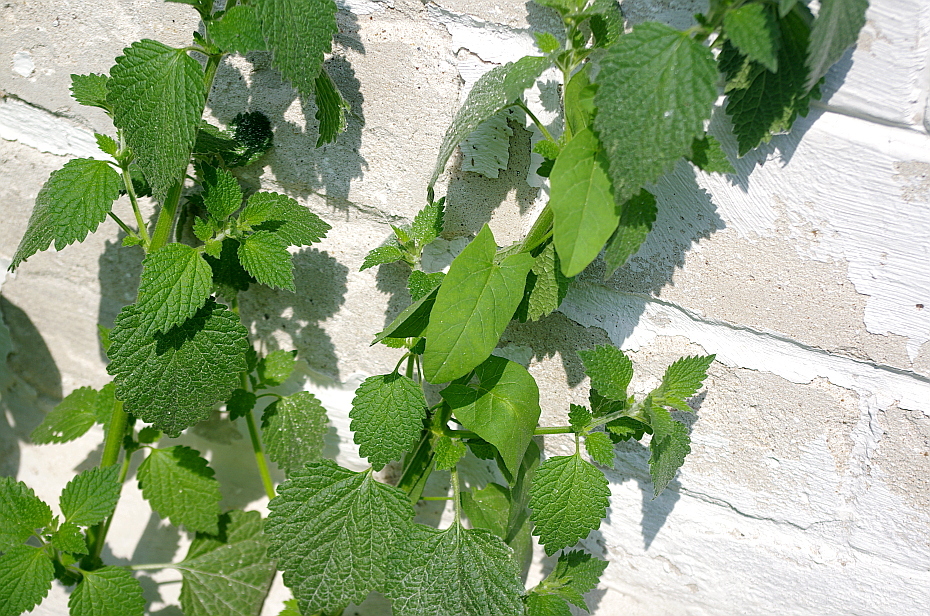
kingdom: Plantae
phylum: Tracheophyta
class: Magnoliopsida
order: Solanales
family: Convolvulaceae
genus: Convolvulus
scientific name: Convolvulus arvensis
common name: Field bindweed
